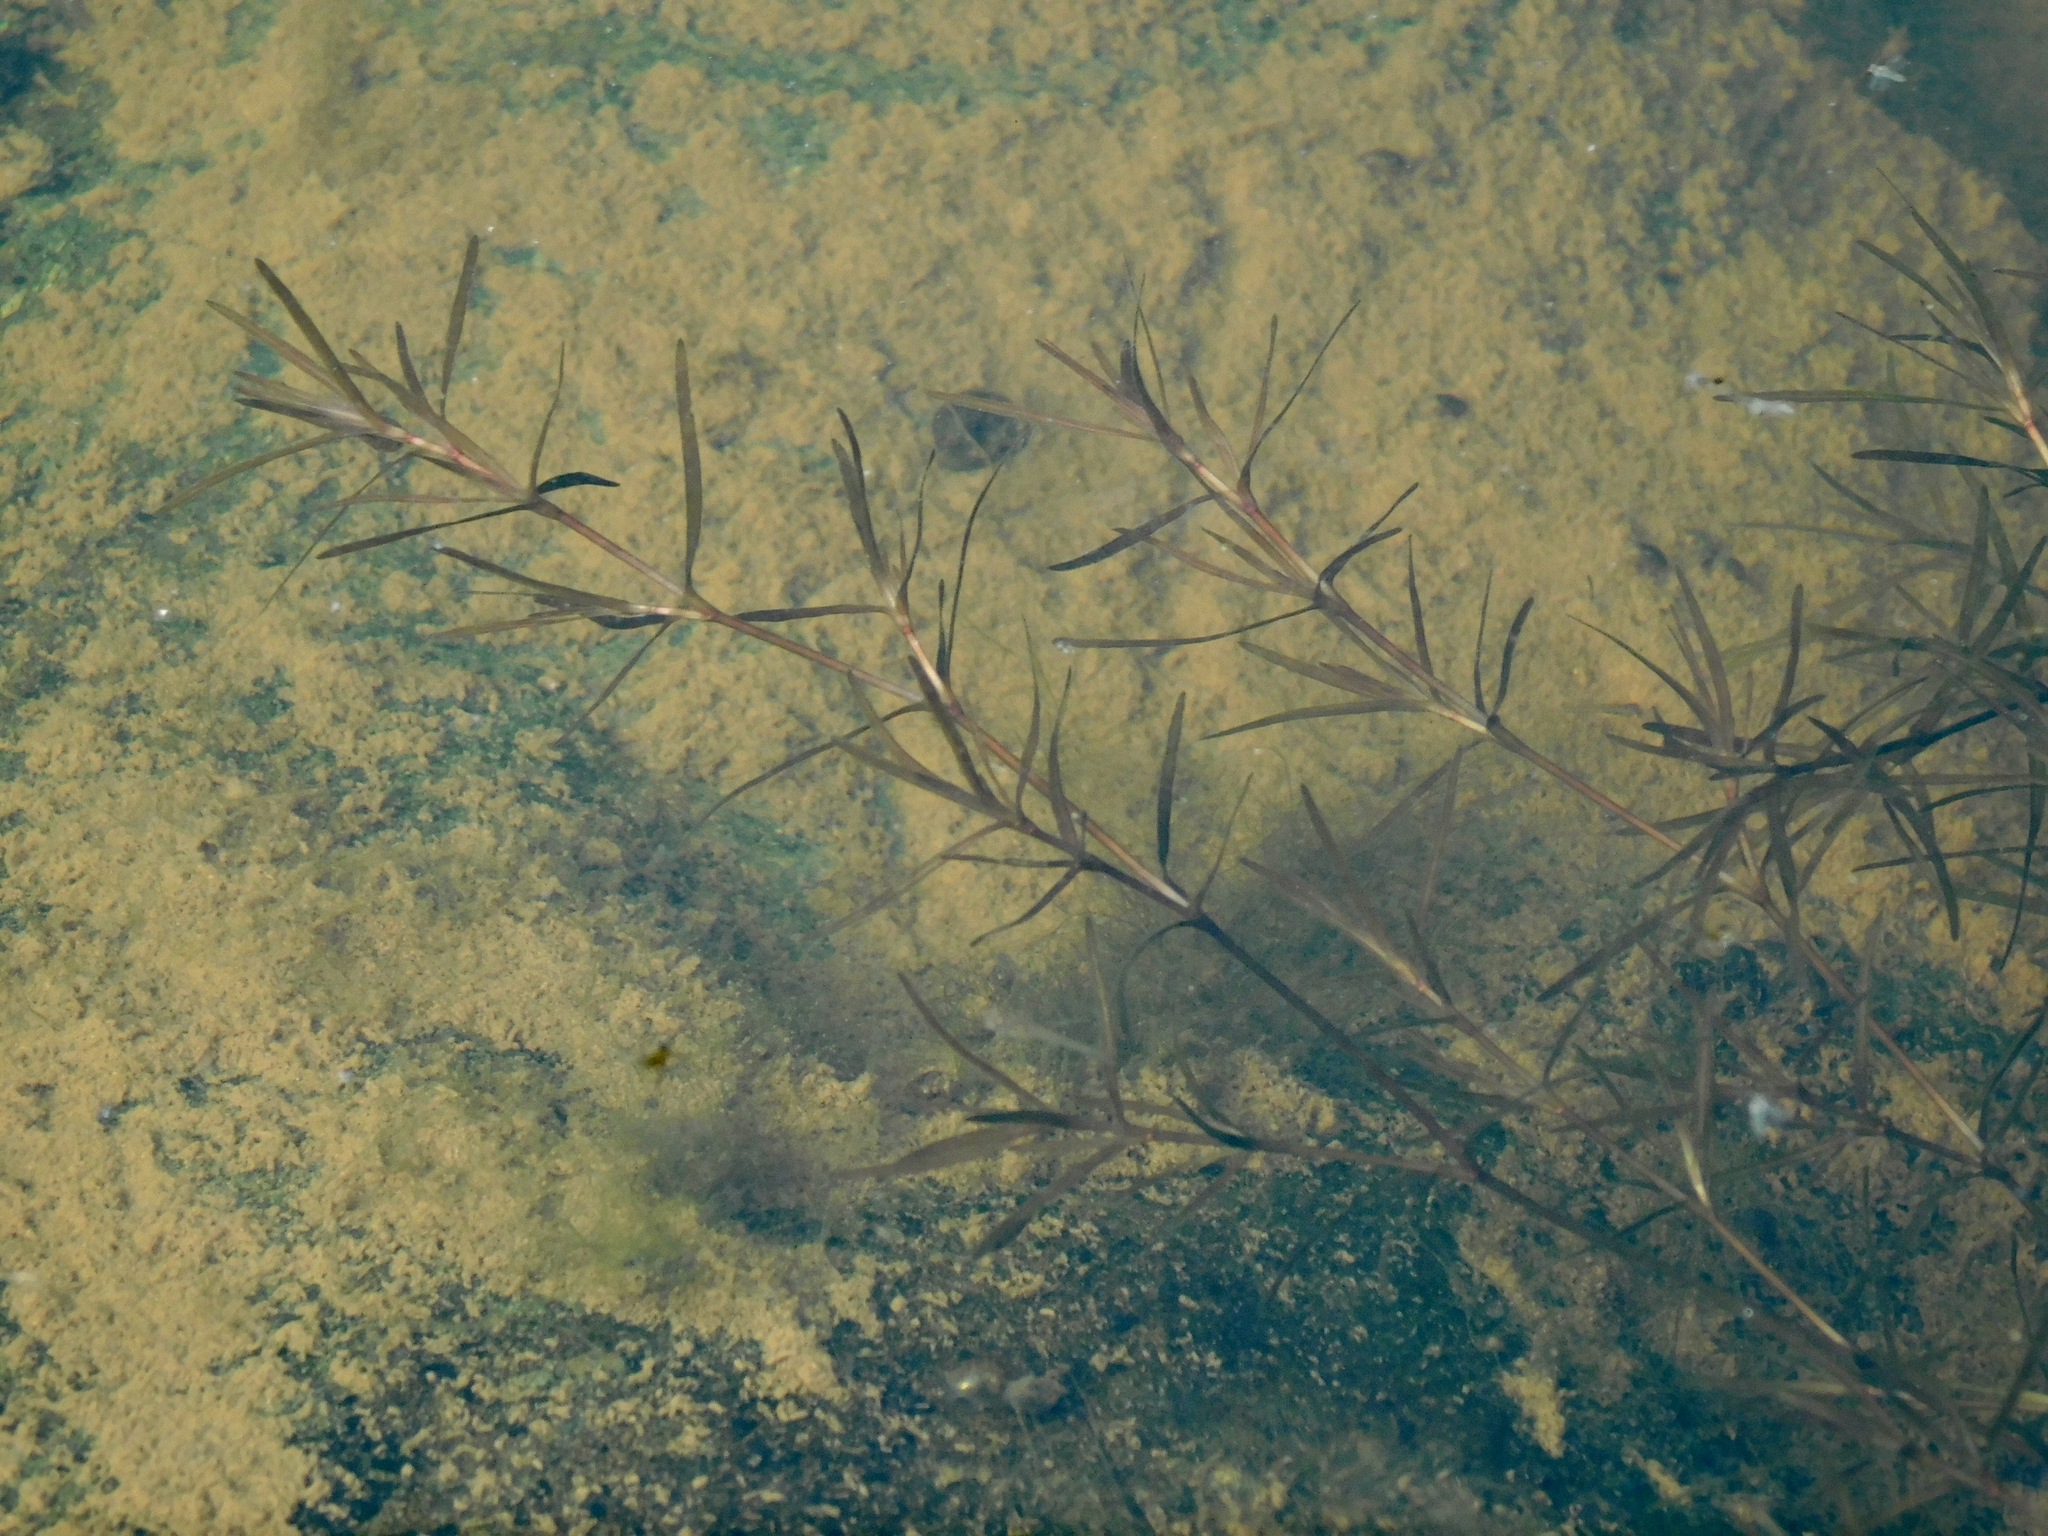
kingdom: Plantae
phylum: Tracheophyta
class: Liliopsida
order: Alismatales
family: Hydrocharitaceae
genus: Najas
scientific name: Najas guadalupensis
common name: Southern naiad
